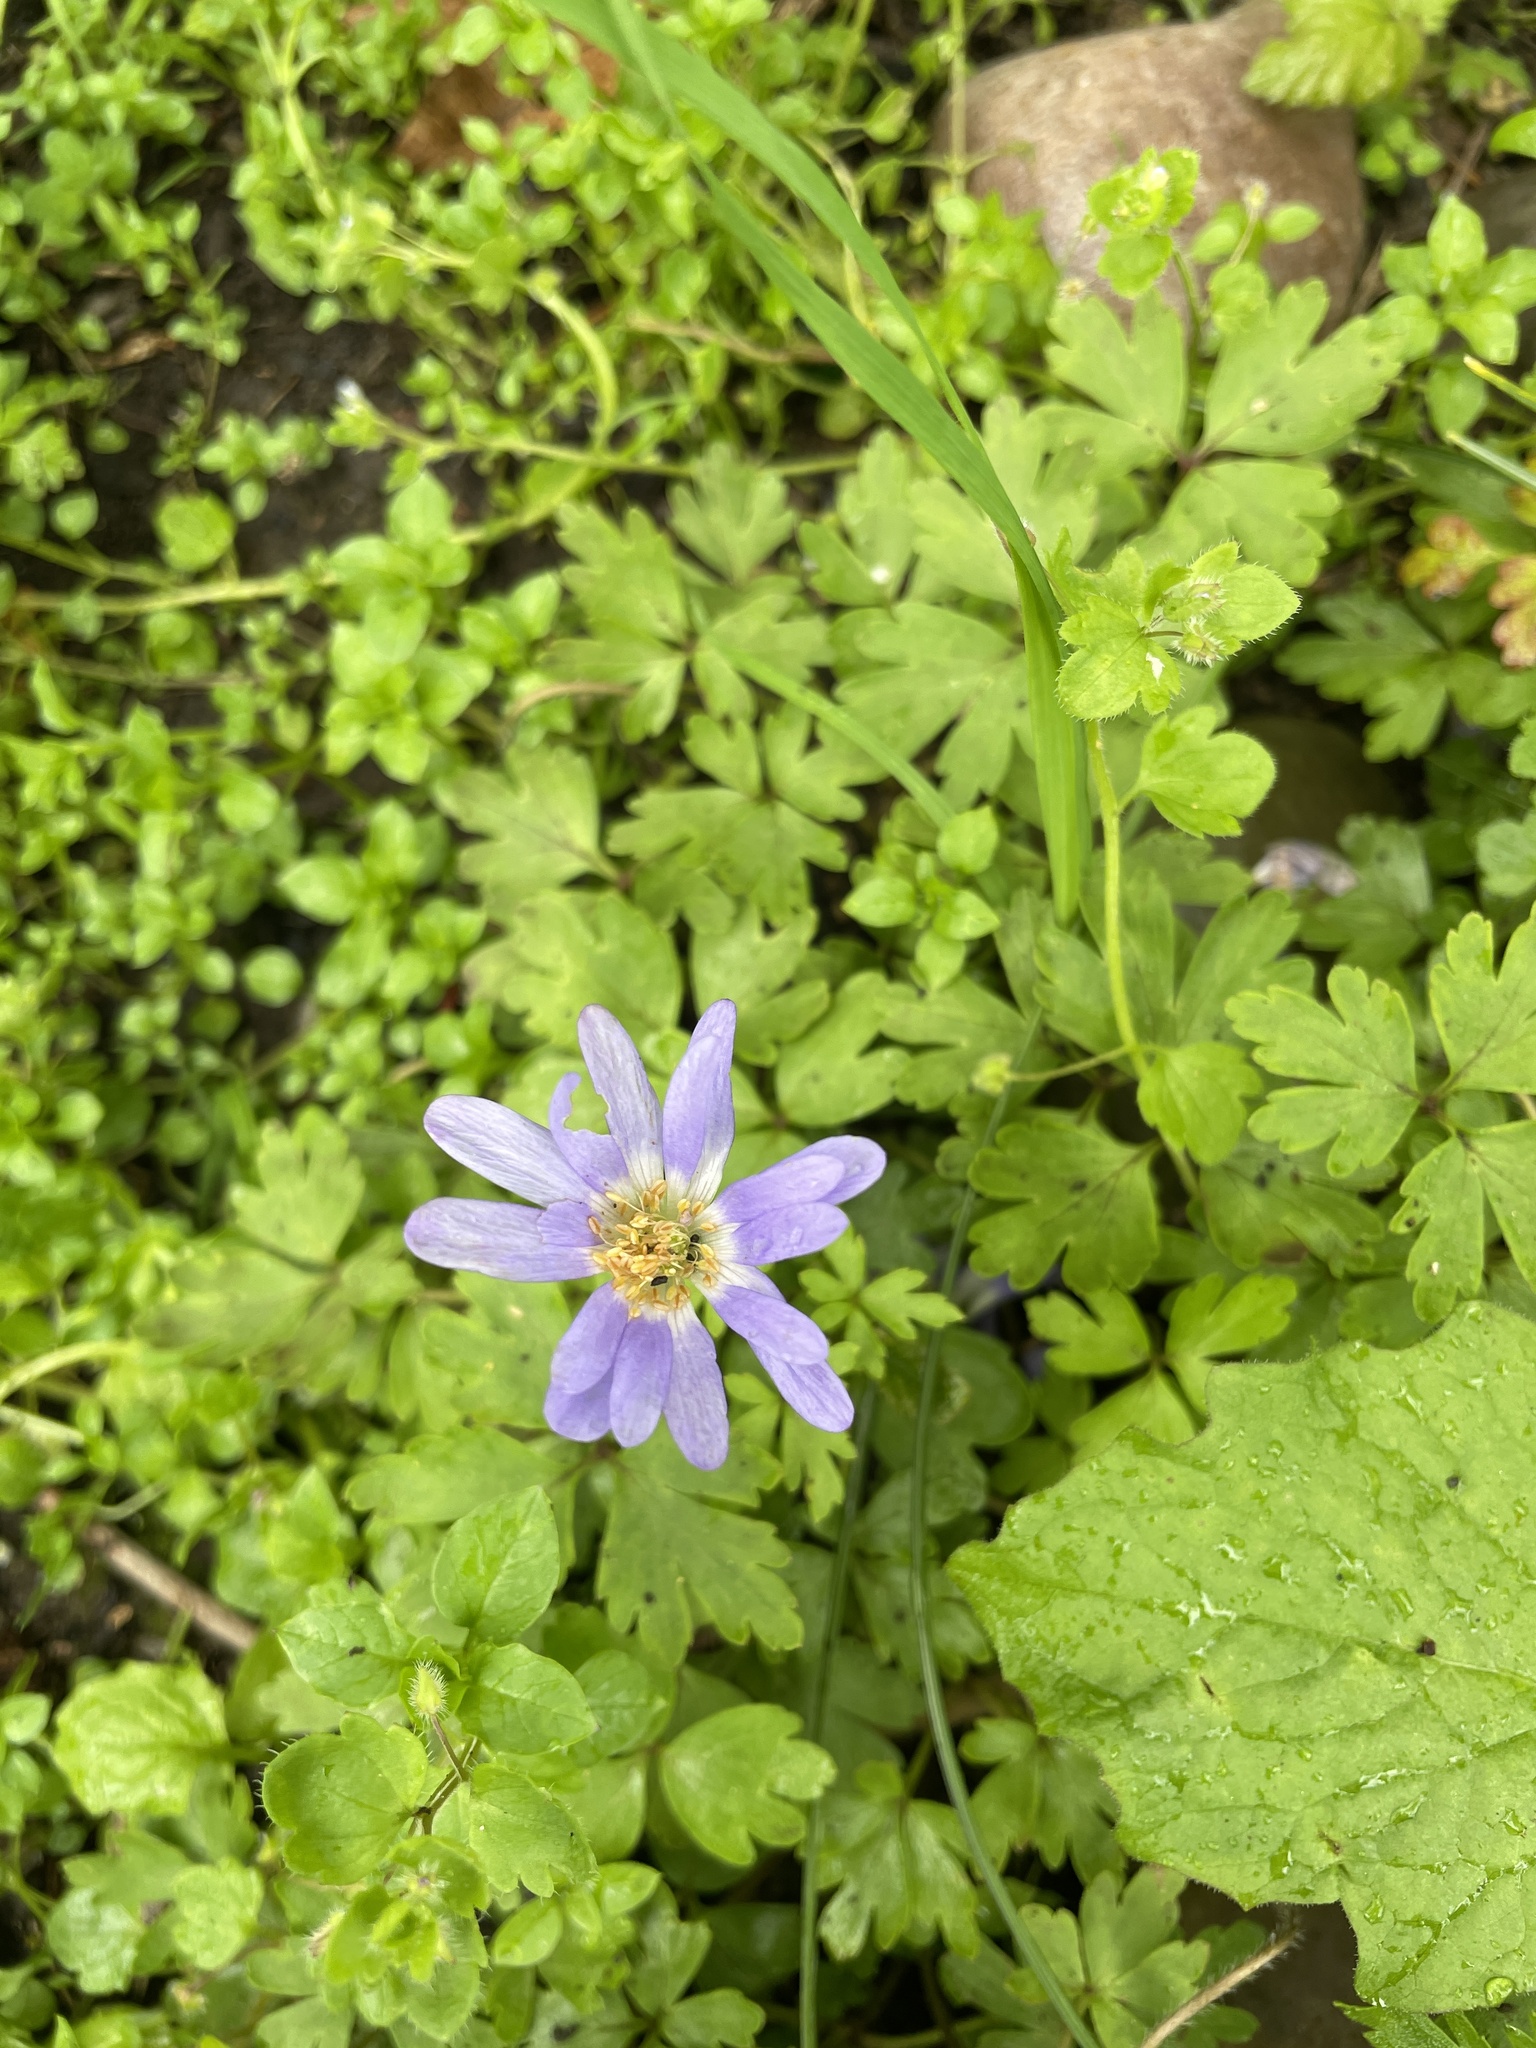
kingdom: Plantae
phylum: Tracheophyta
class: Magnoliopsida
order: Ranunculales
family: Ranunculaceae
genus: Anemone
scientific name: Anemone blanda
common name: Balkan anemone
